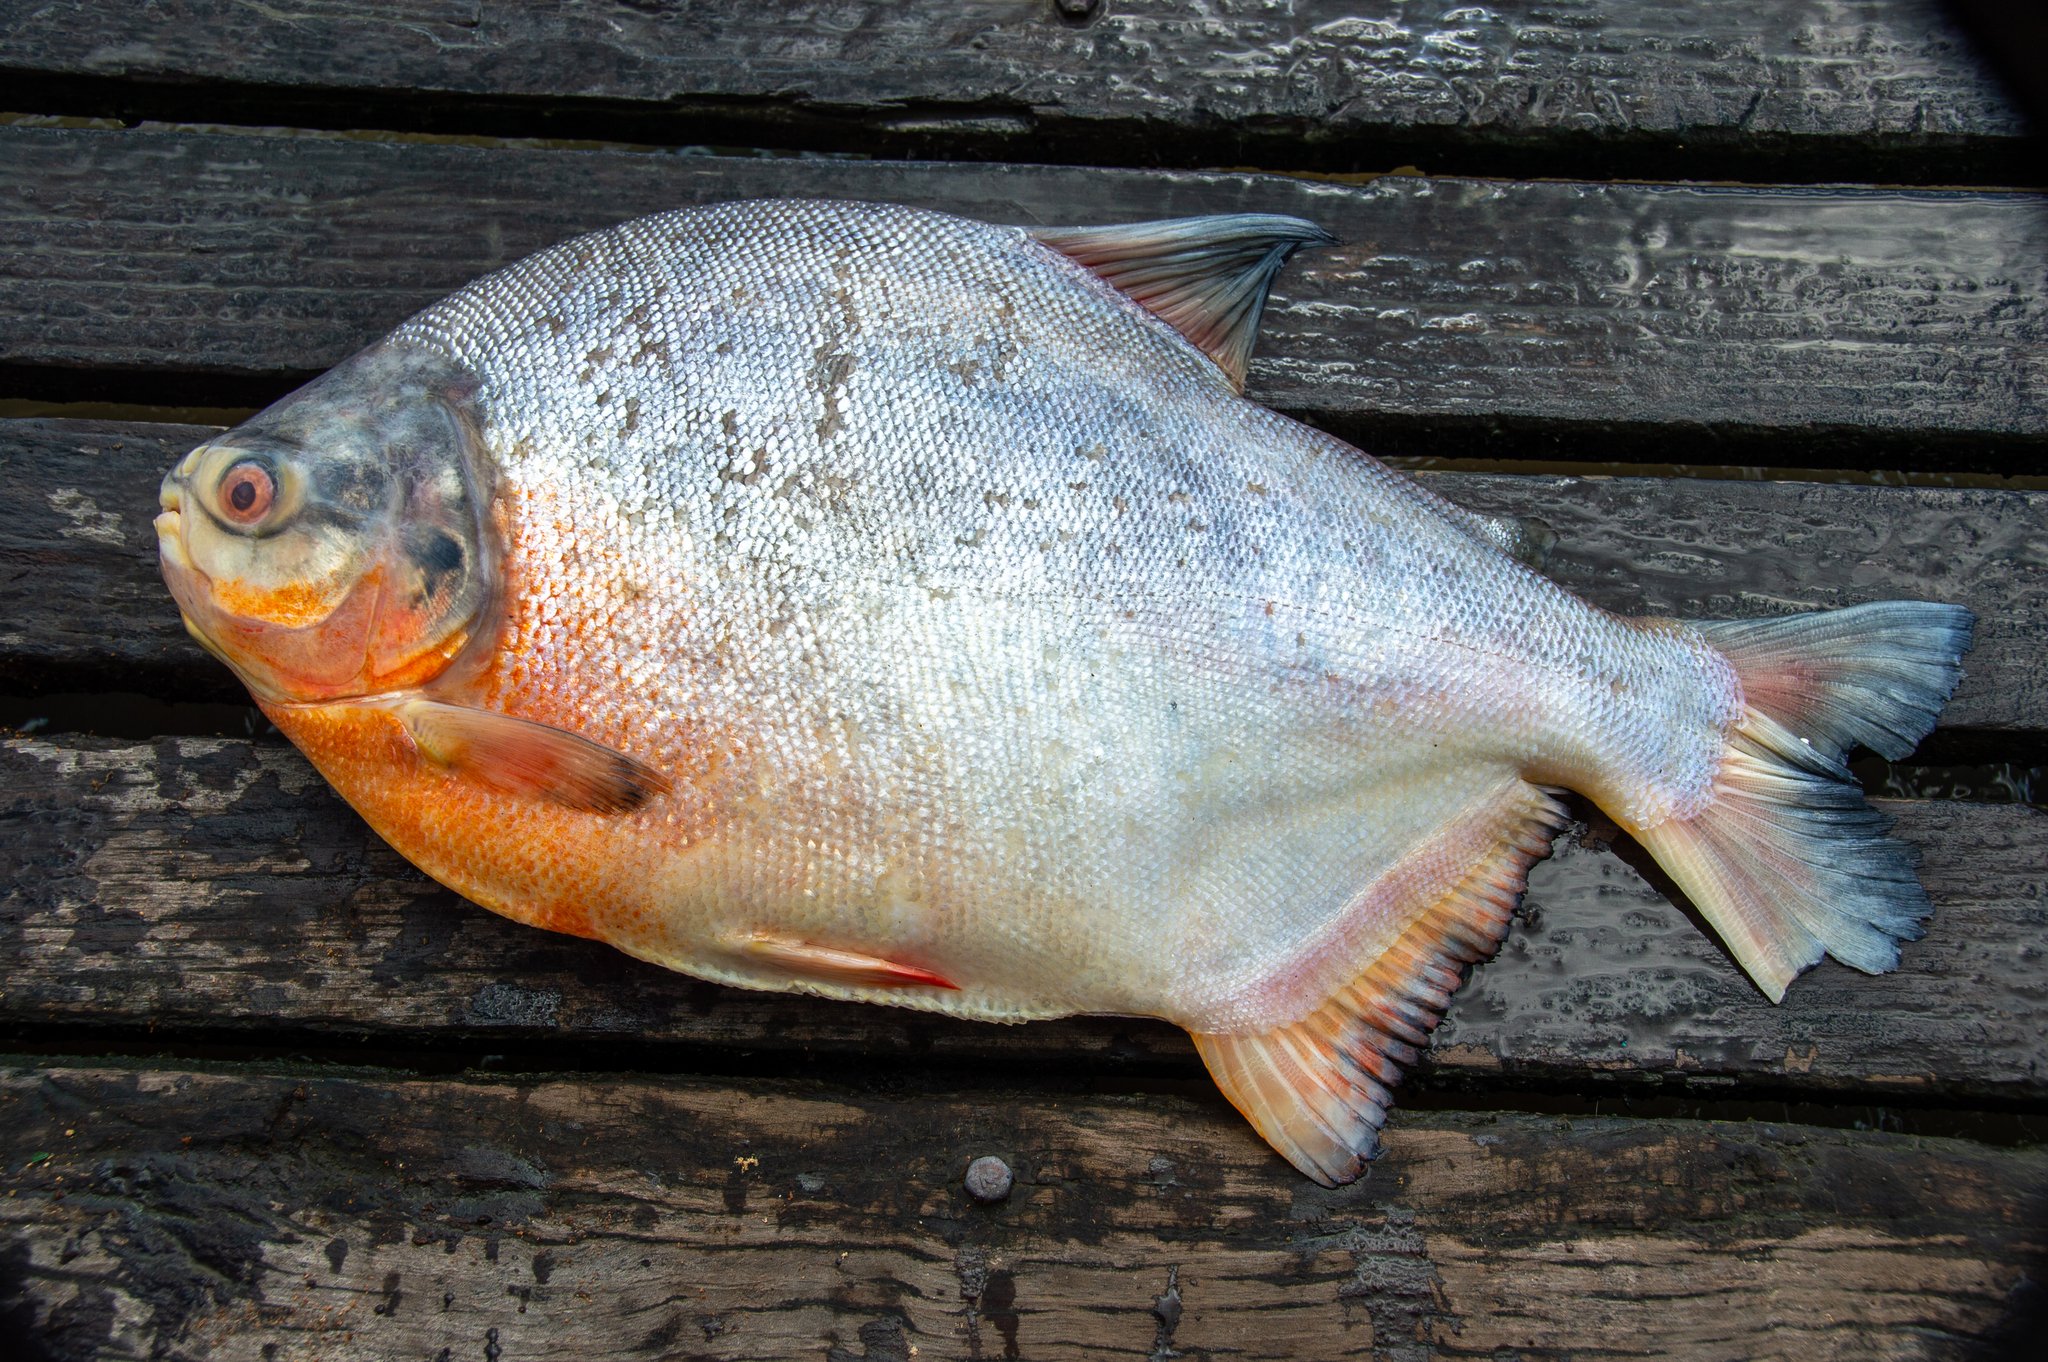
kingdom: Animalia
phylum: Chordata
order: Characiformes
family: Serrasalmidae
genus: Piaractus
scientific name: Piaractus brachypomus
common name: Cachama
